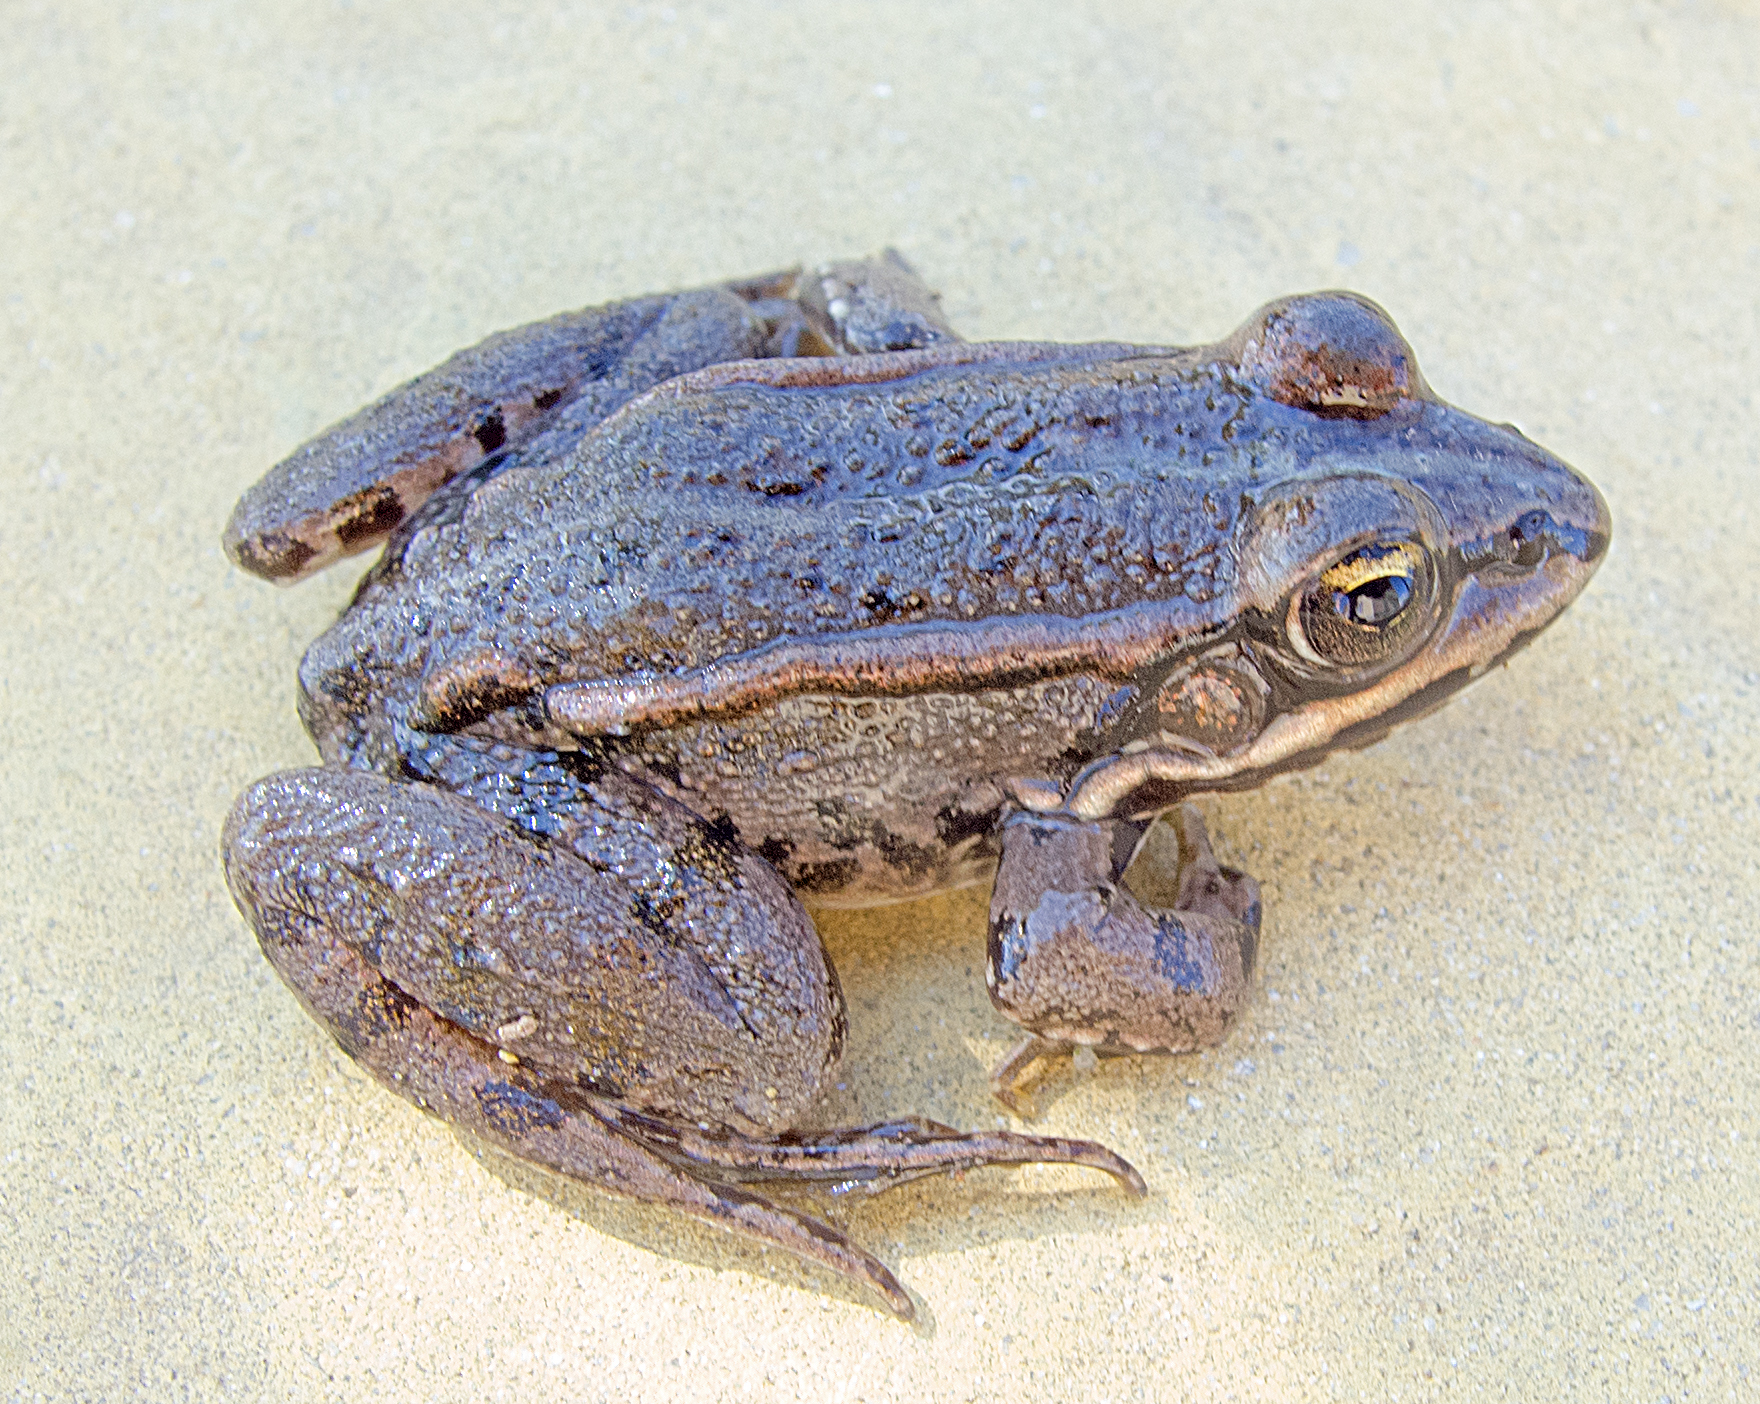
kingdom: Animalia
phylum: Chordata
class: Amphibia
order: Anura
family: Ranidae
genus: Pelophylax
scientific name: Pelophylax
